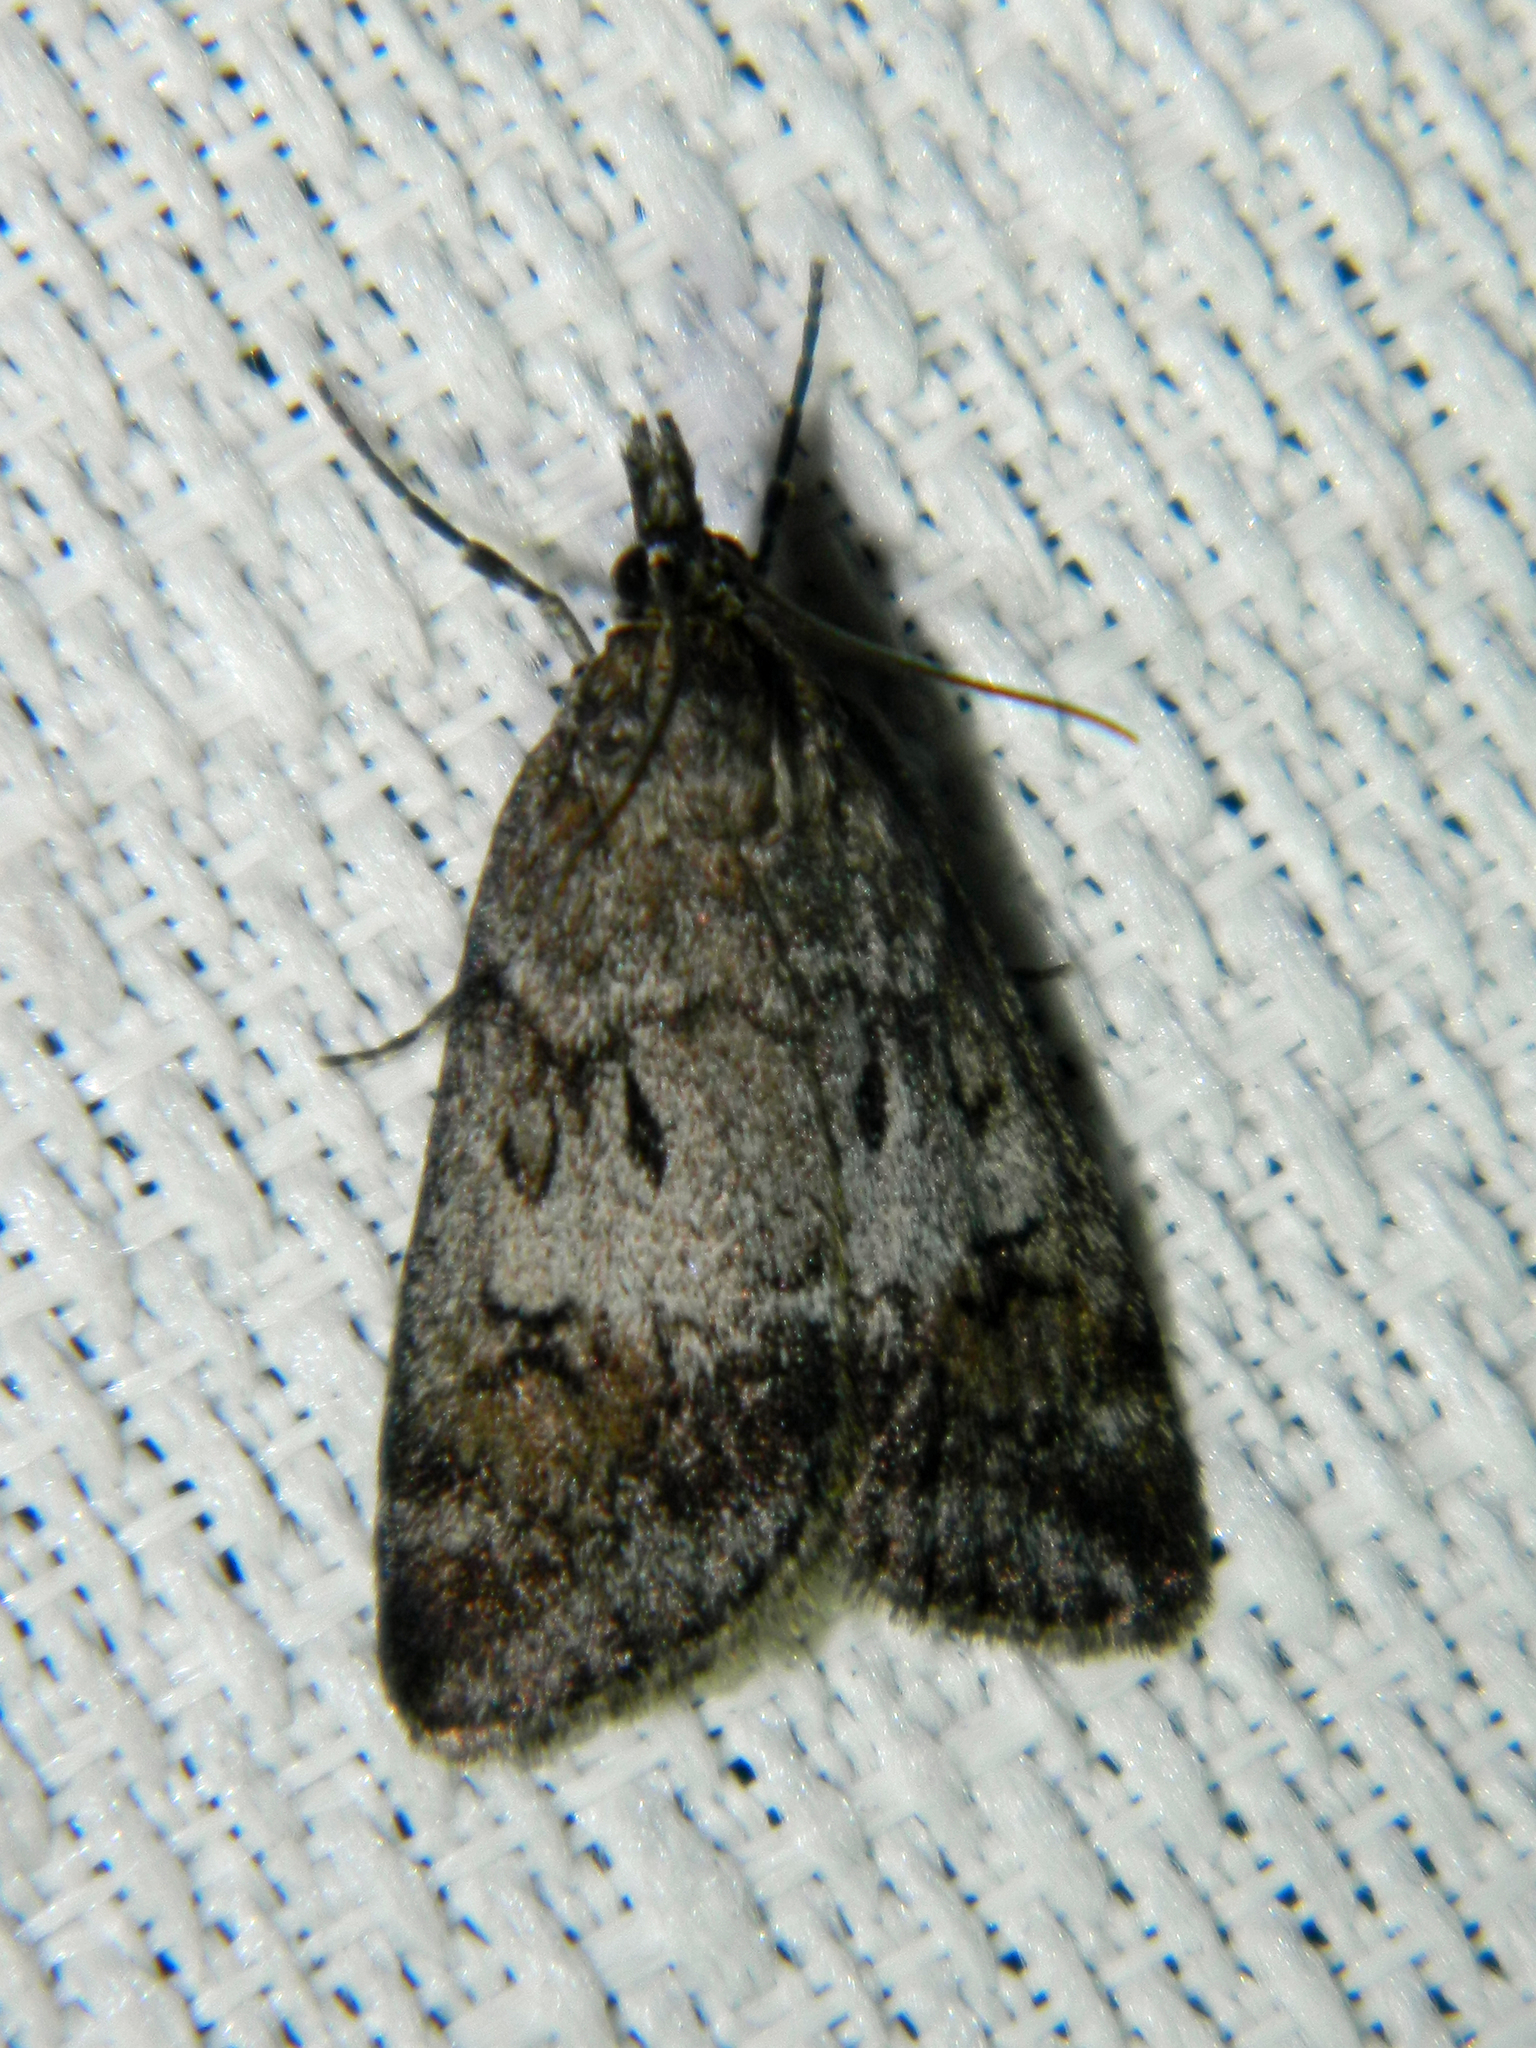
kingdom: Animalia
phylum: Arthropoda
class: Insecta
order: Lepidoptera
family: Crambidae
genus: Gesneria
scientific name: Gesneria centuriella
